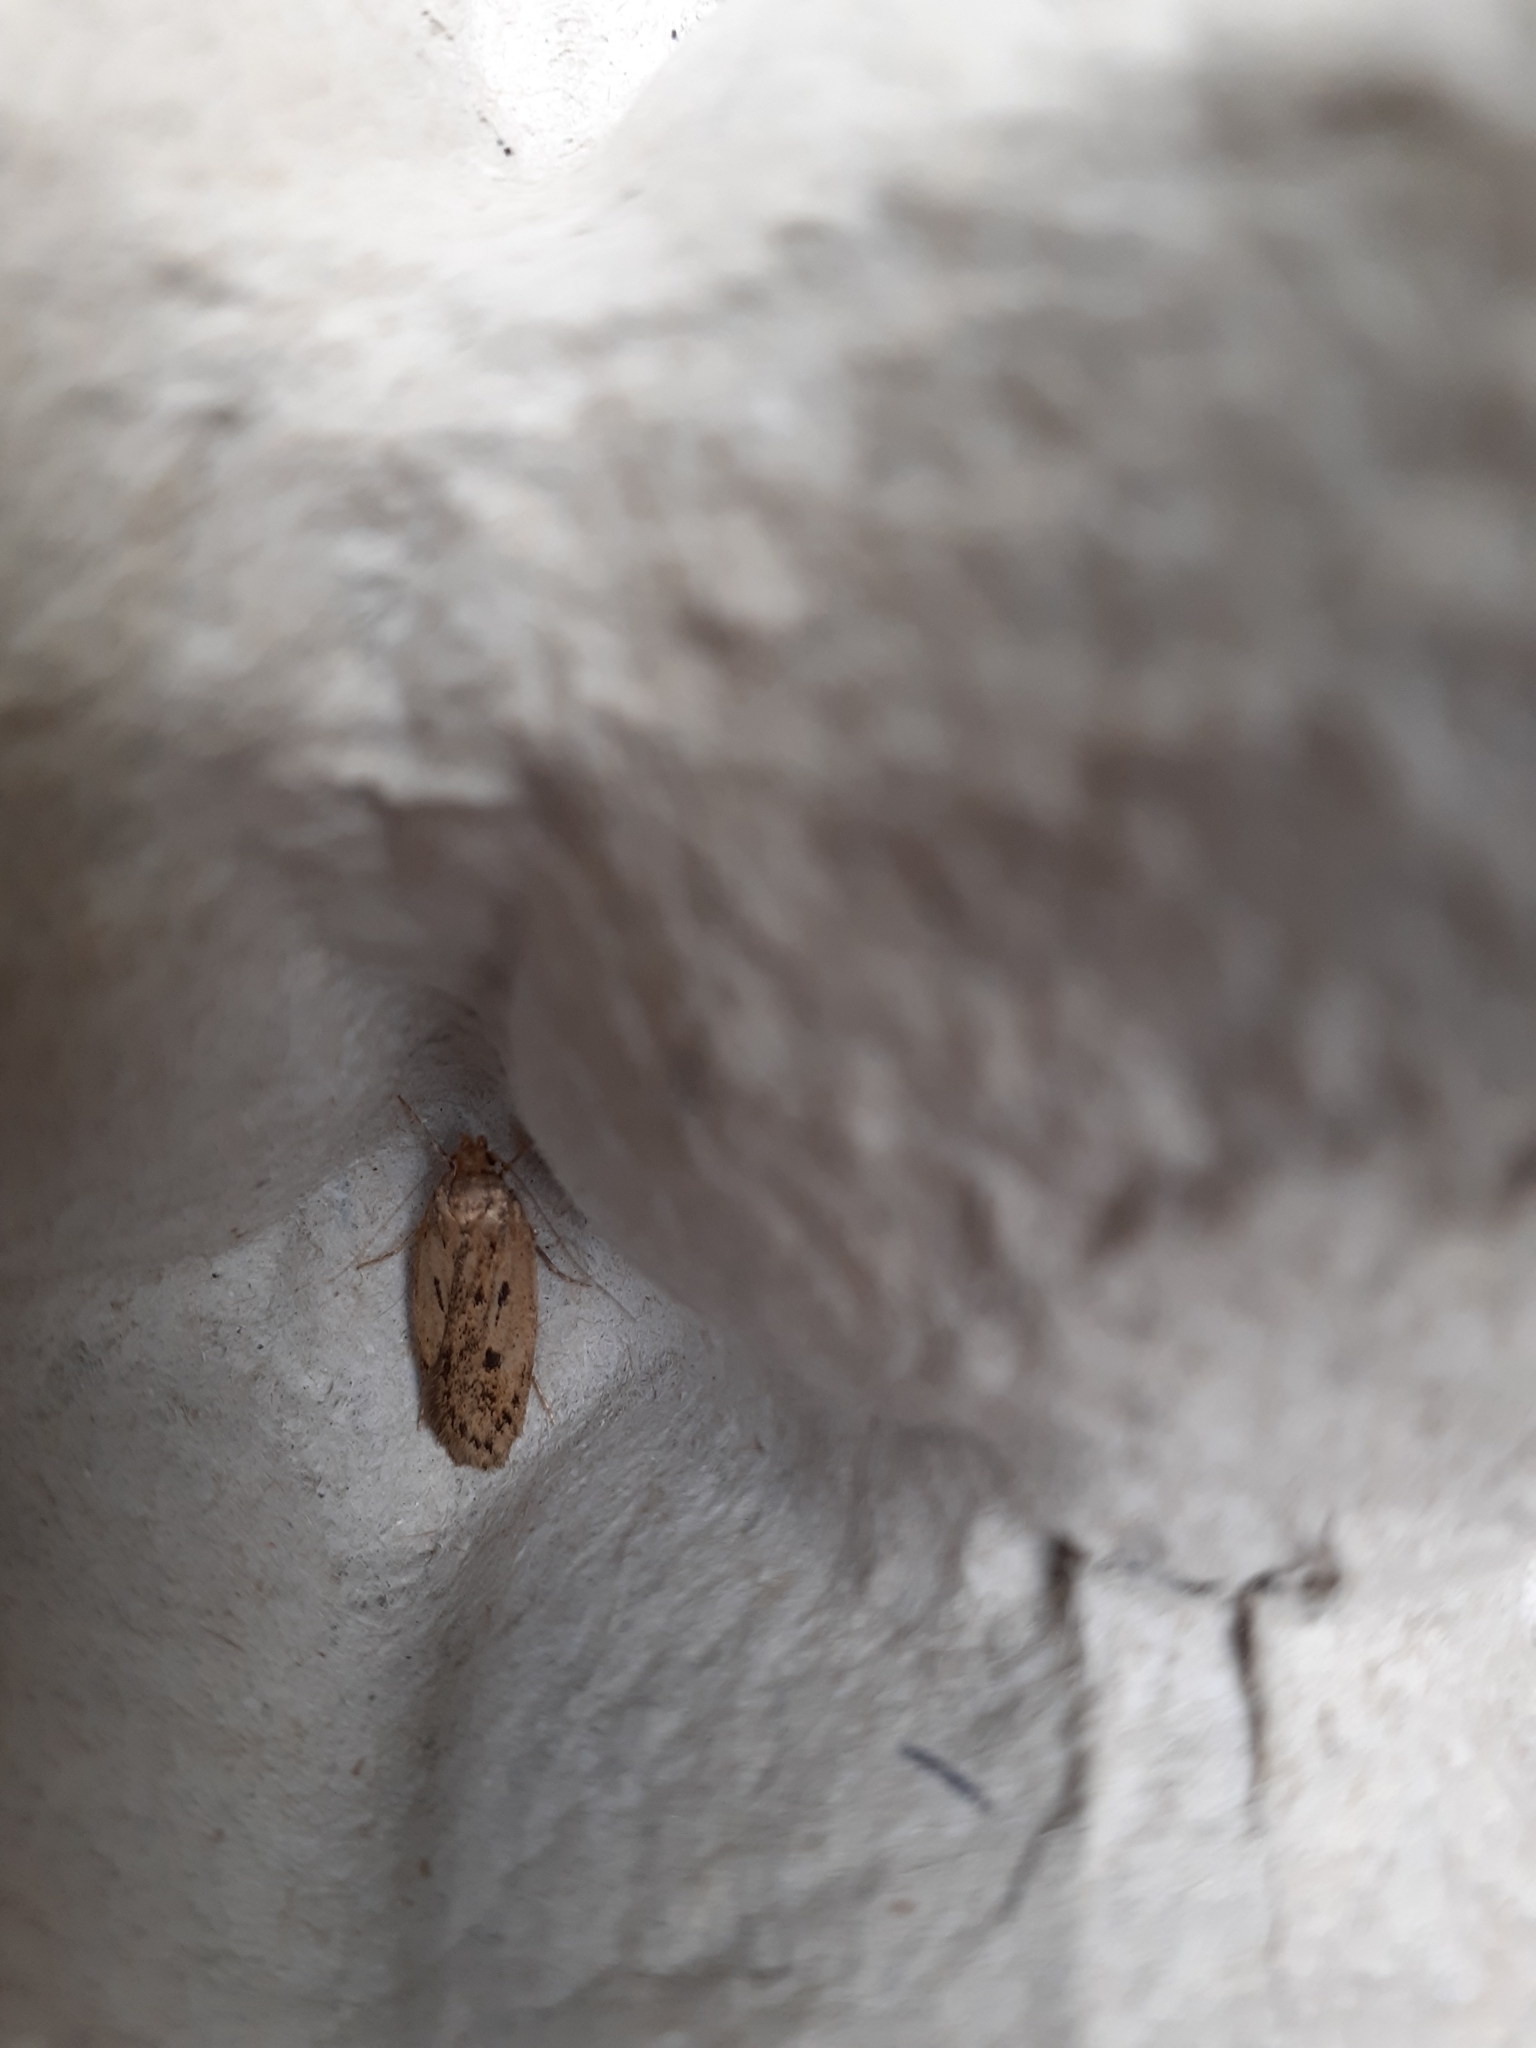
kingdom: Animalia
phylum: Arthropoda
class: Insecta
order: Lepidoptera
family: Oecophoridae
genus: Hofmannophila
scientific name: Hofmannophila pseudospretella
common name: Brown house moth
